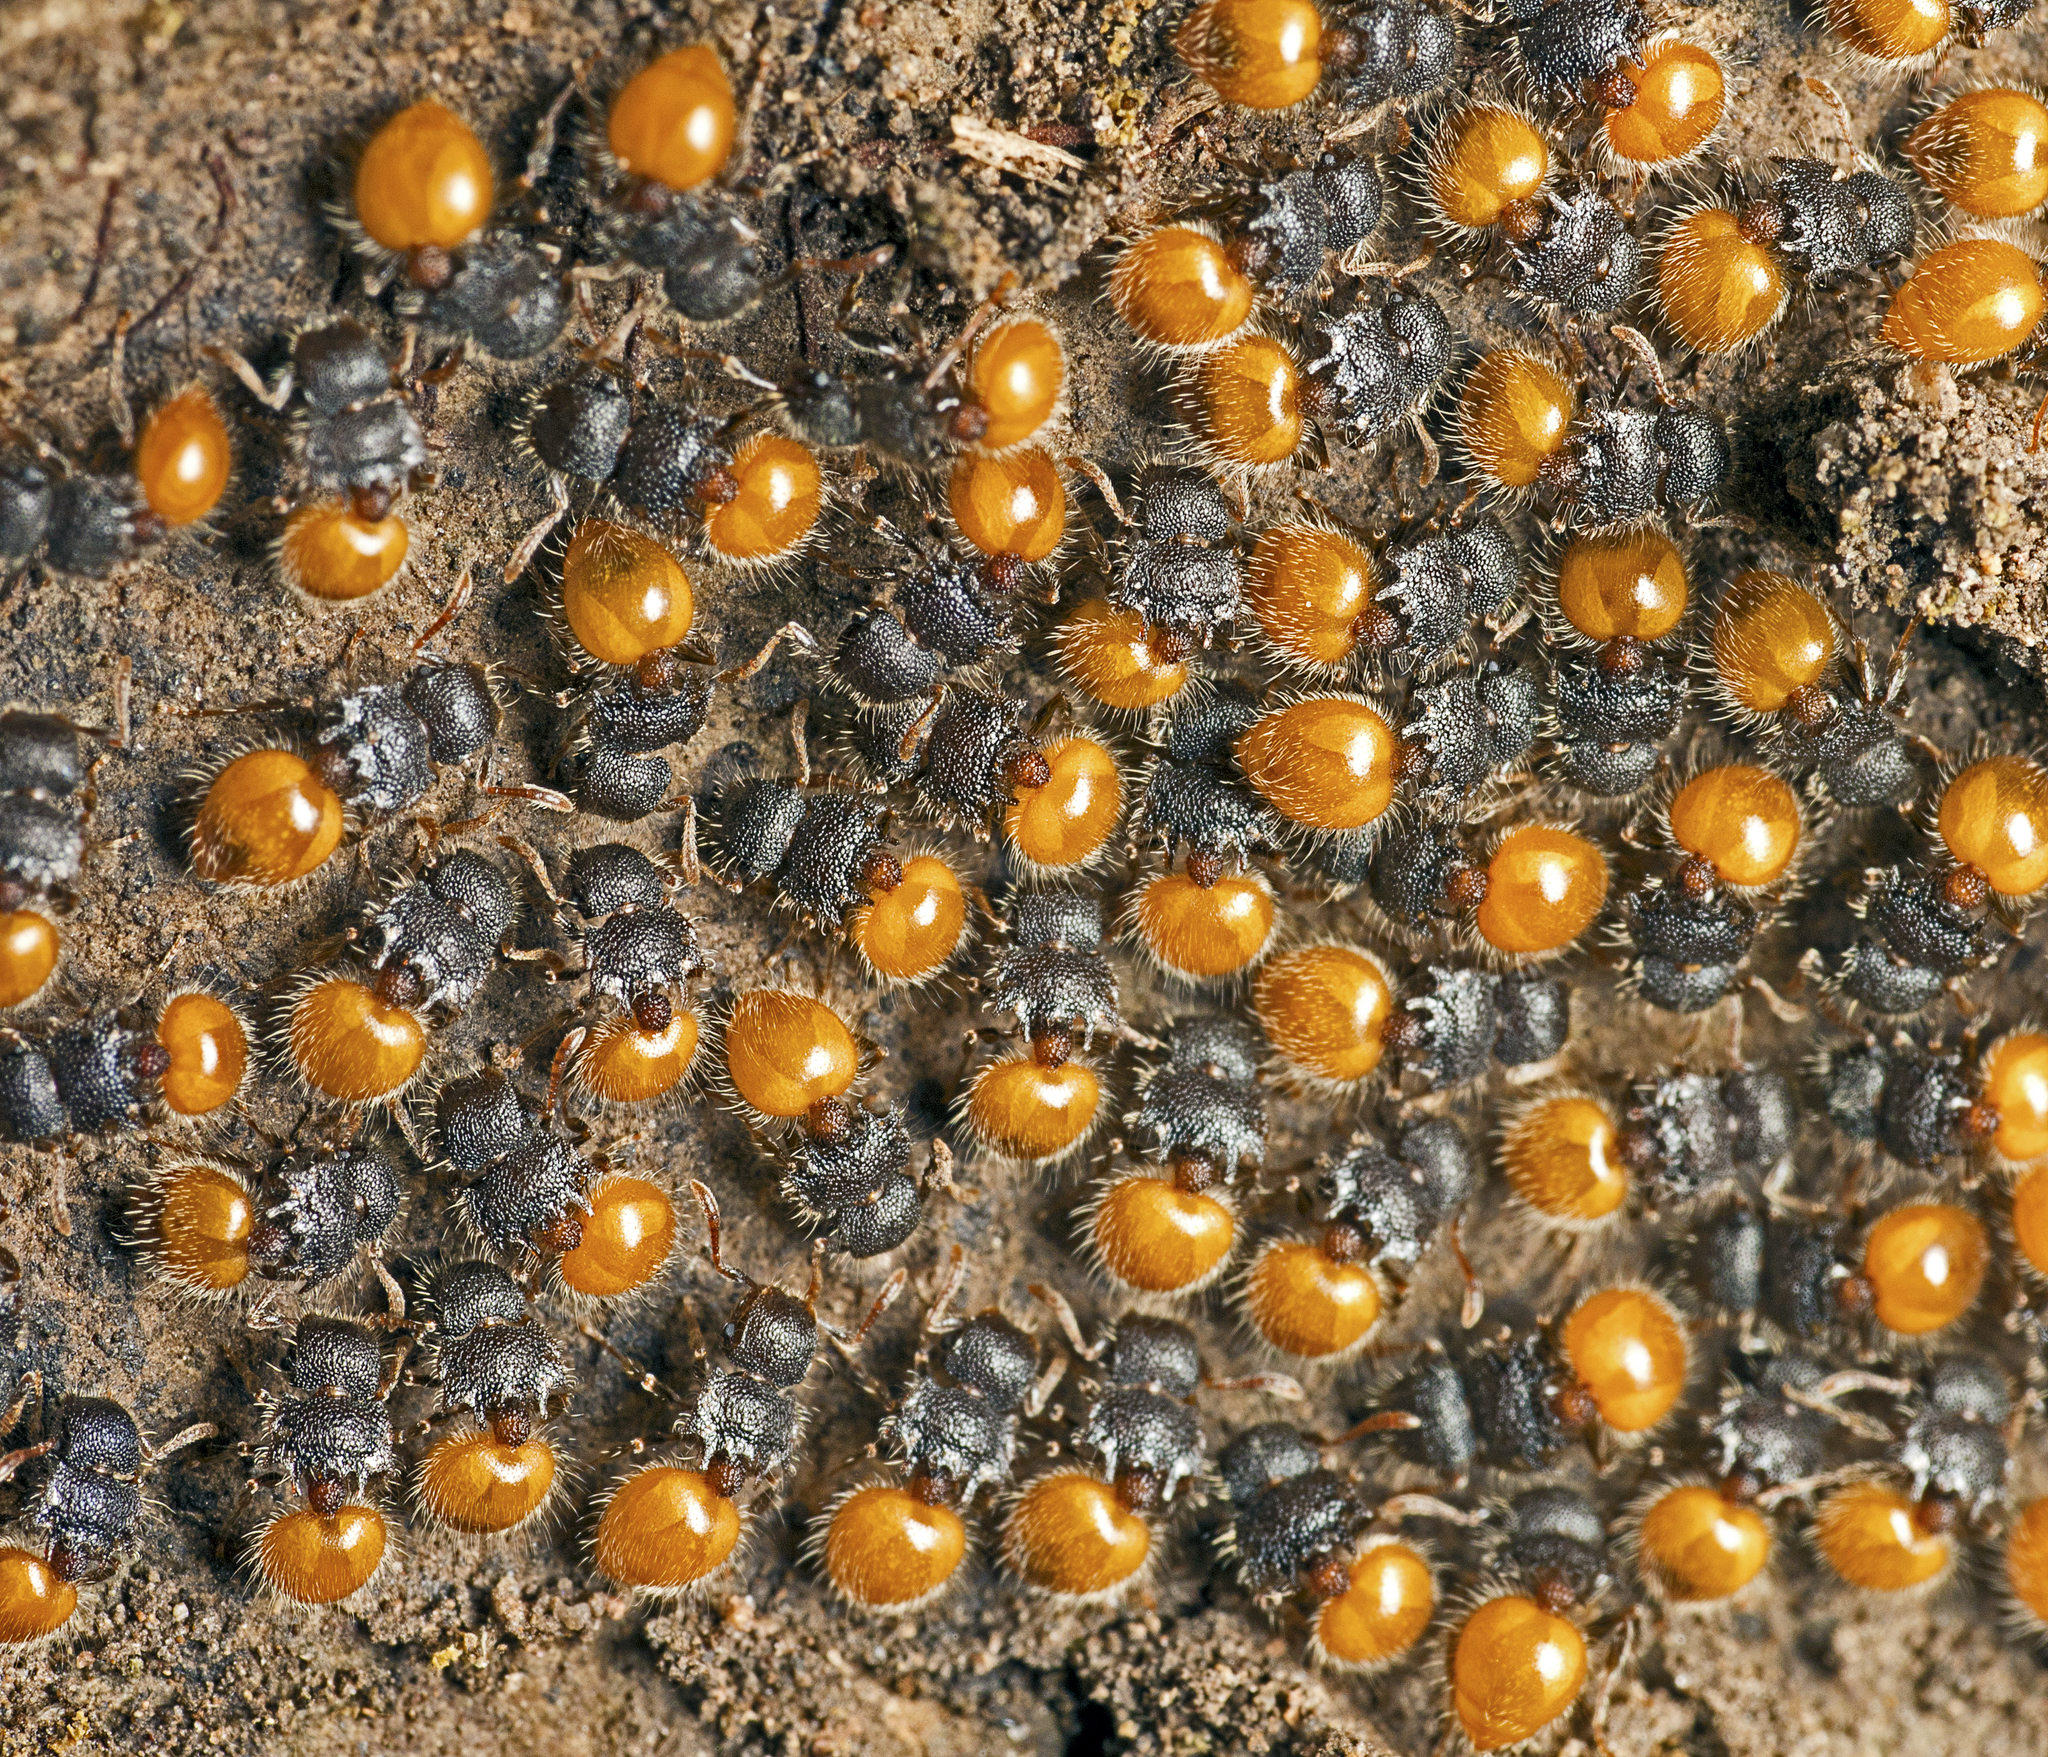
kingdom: Animalia
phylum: Arthropoda
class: Insecta
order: Hymenoptera
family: Formicidae
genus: Meranoplus
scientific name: Meranoplus hirsutus
